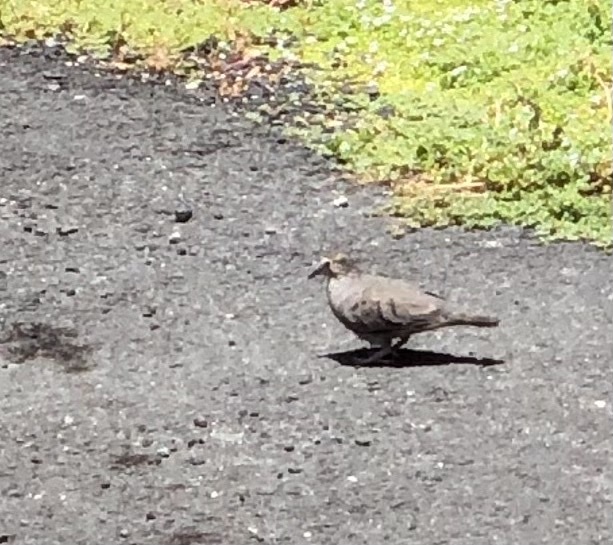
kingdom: Animalia
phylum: Chordata
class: Aves
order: Columbiformes
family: Columbidae
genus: Columbina
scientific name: Columbina passerina
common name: Common ground-dove
